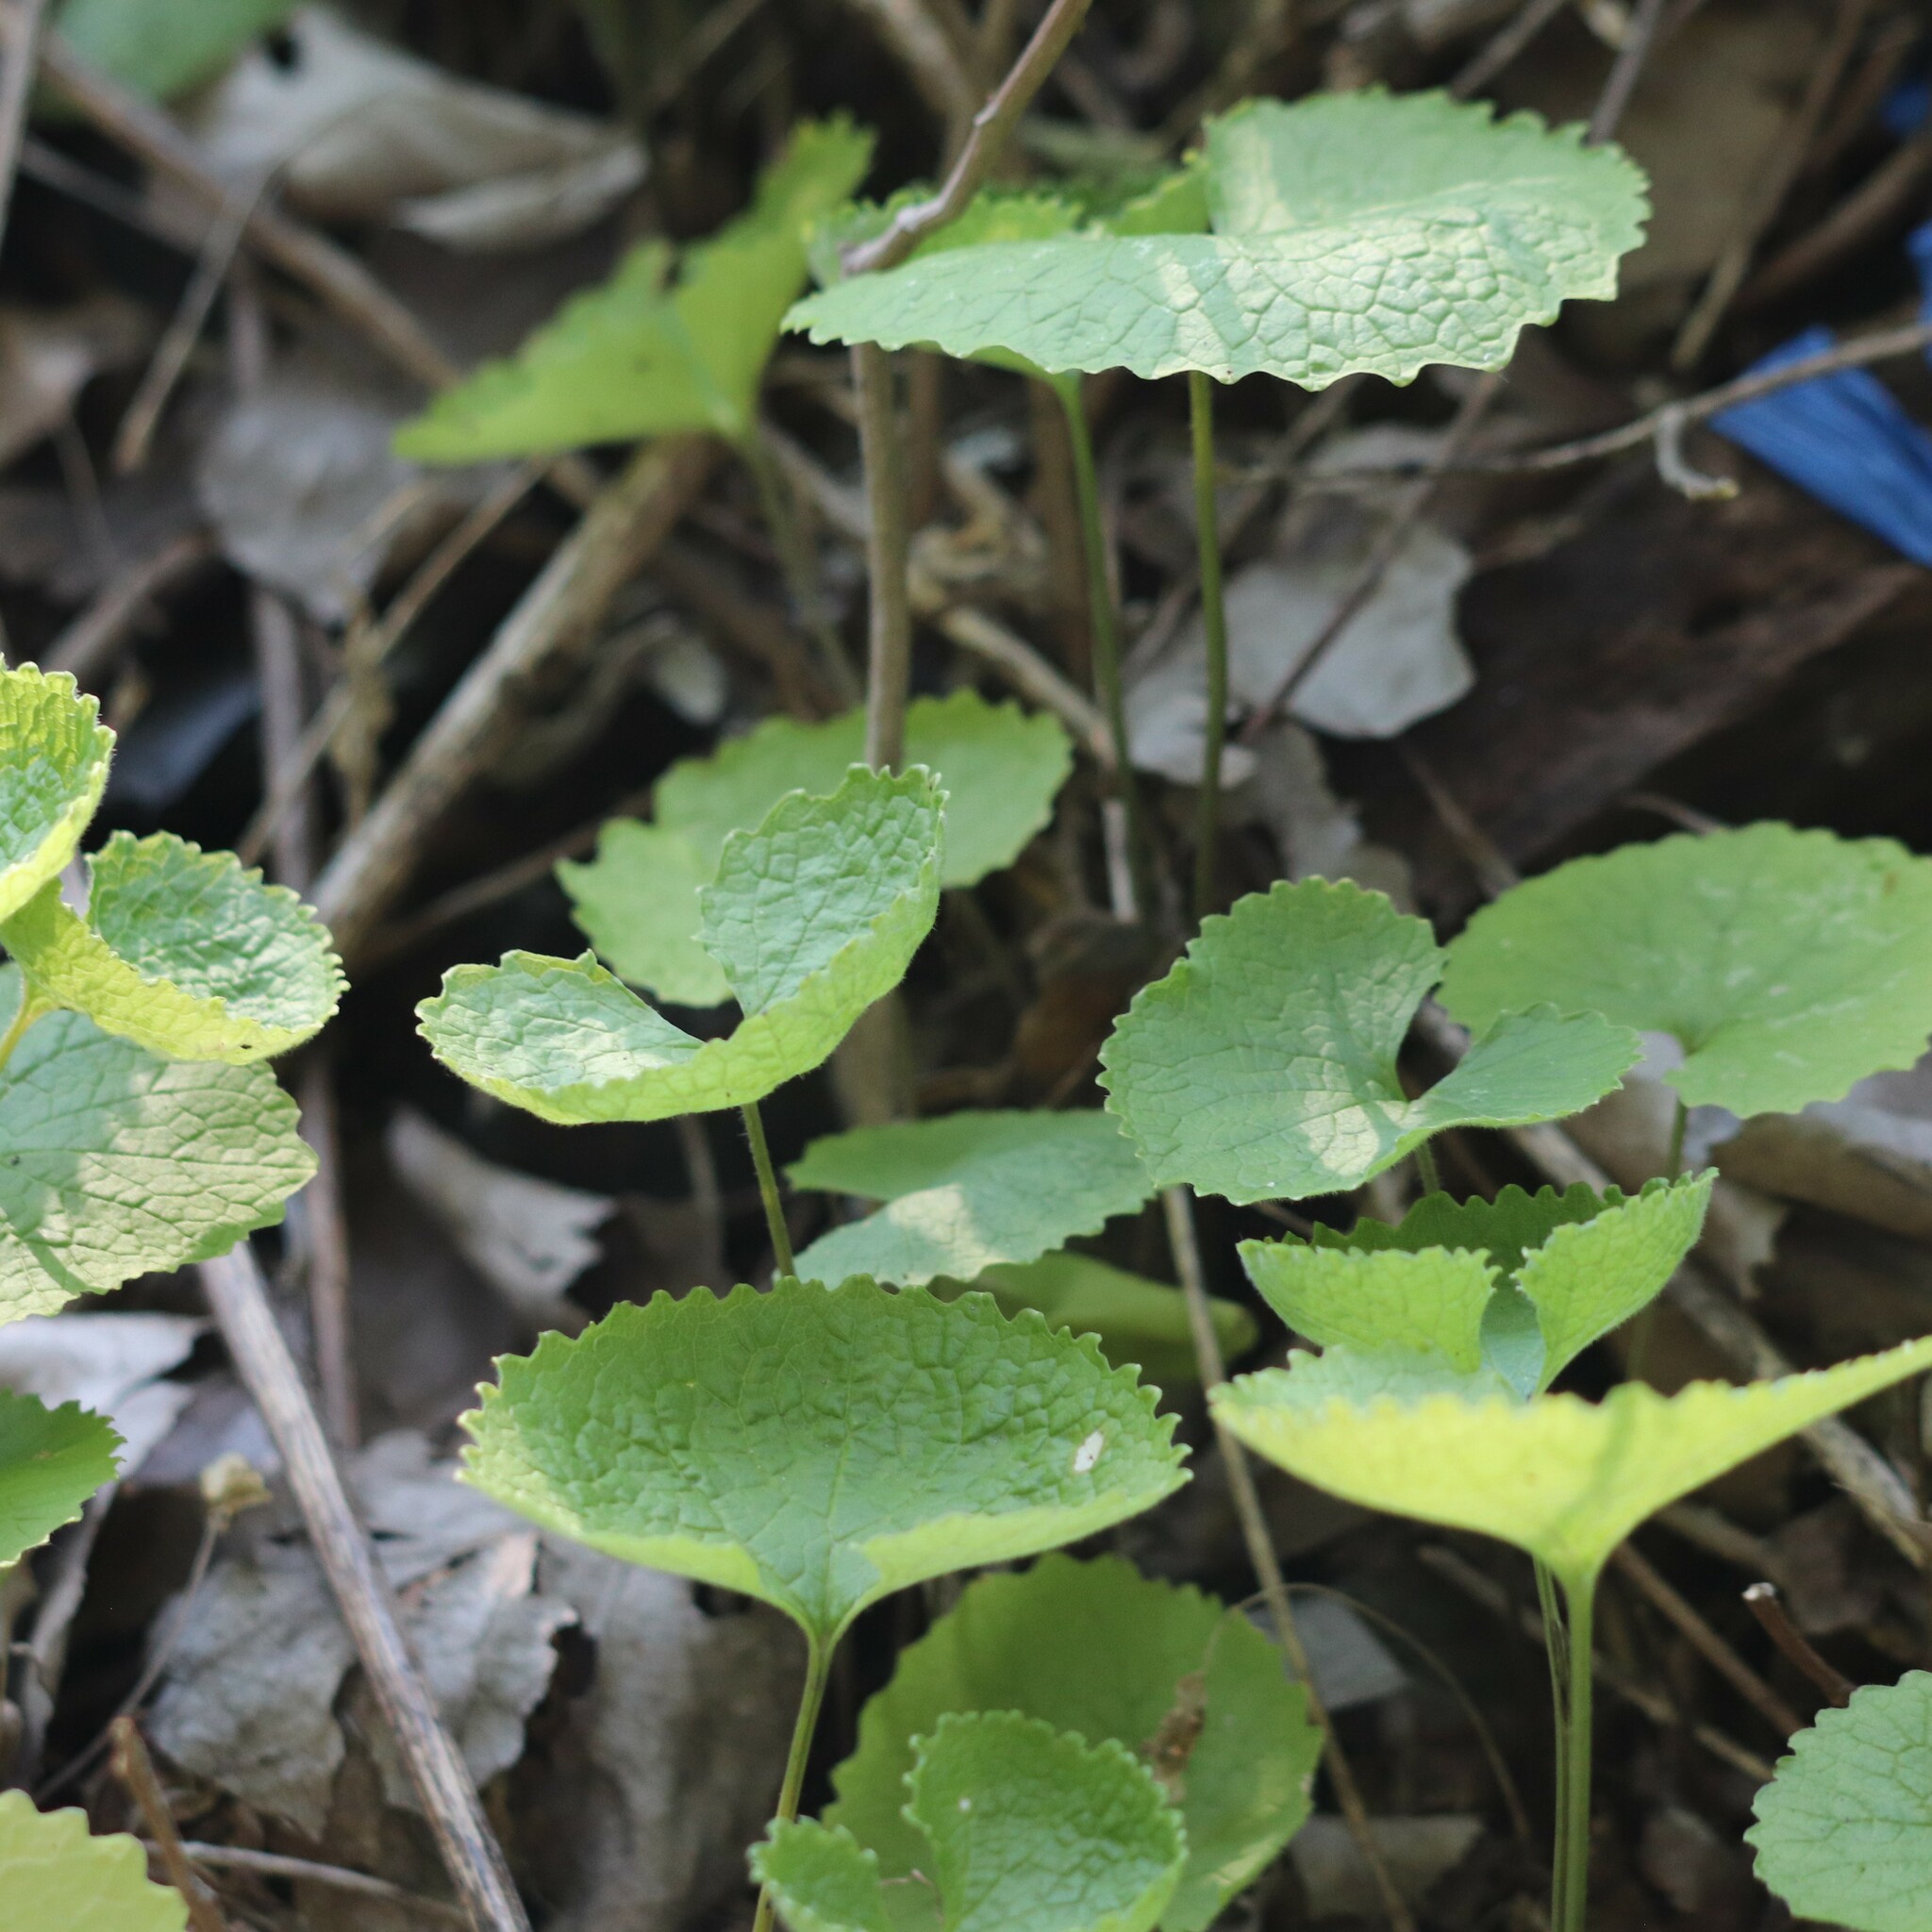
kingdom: Plantae
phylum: Tracheophyta
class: Magnoliopsida
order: Brassicales
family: Brassicaceae
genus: Alliaria
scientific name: Alliaria petiolata
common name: Garlic mustard
